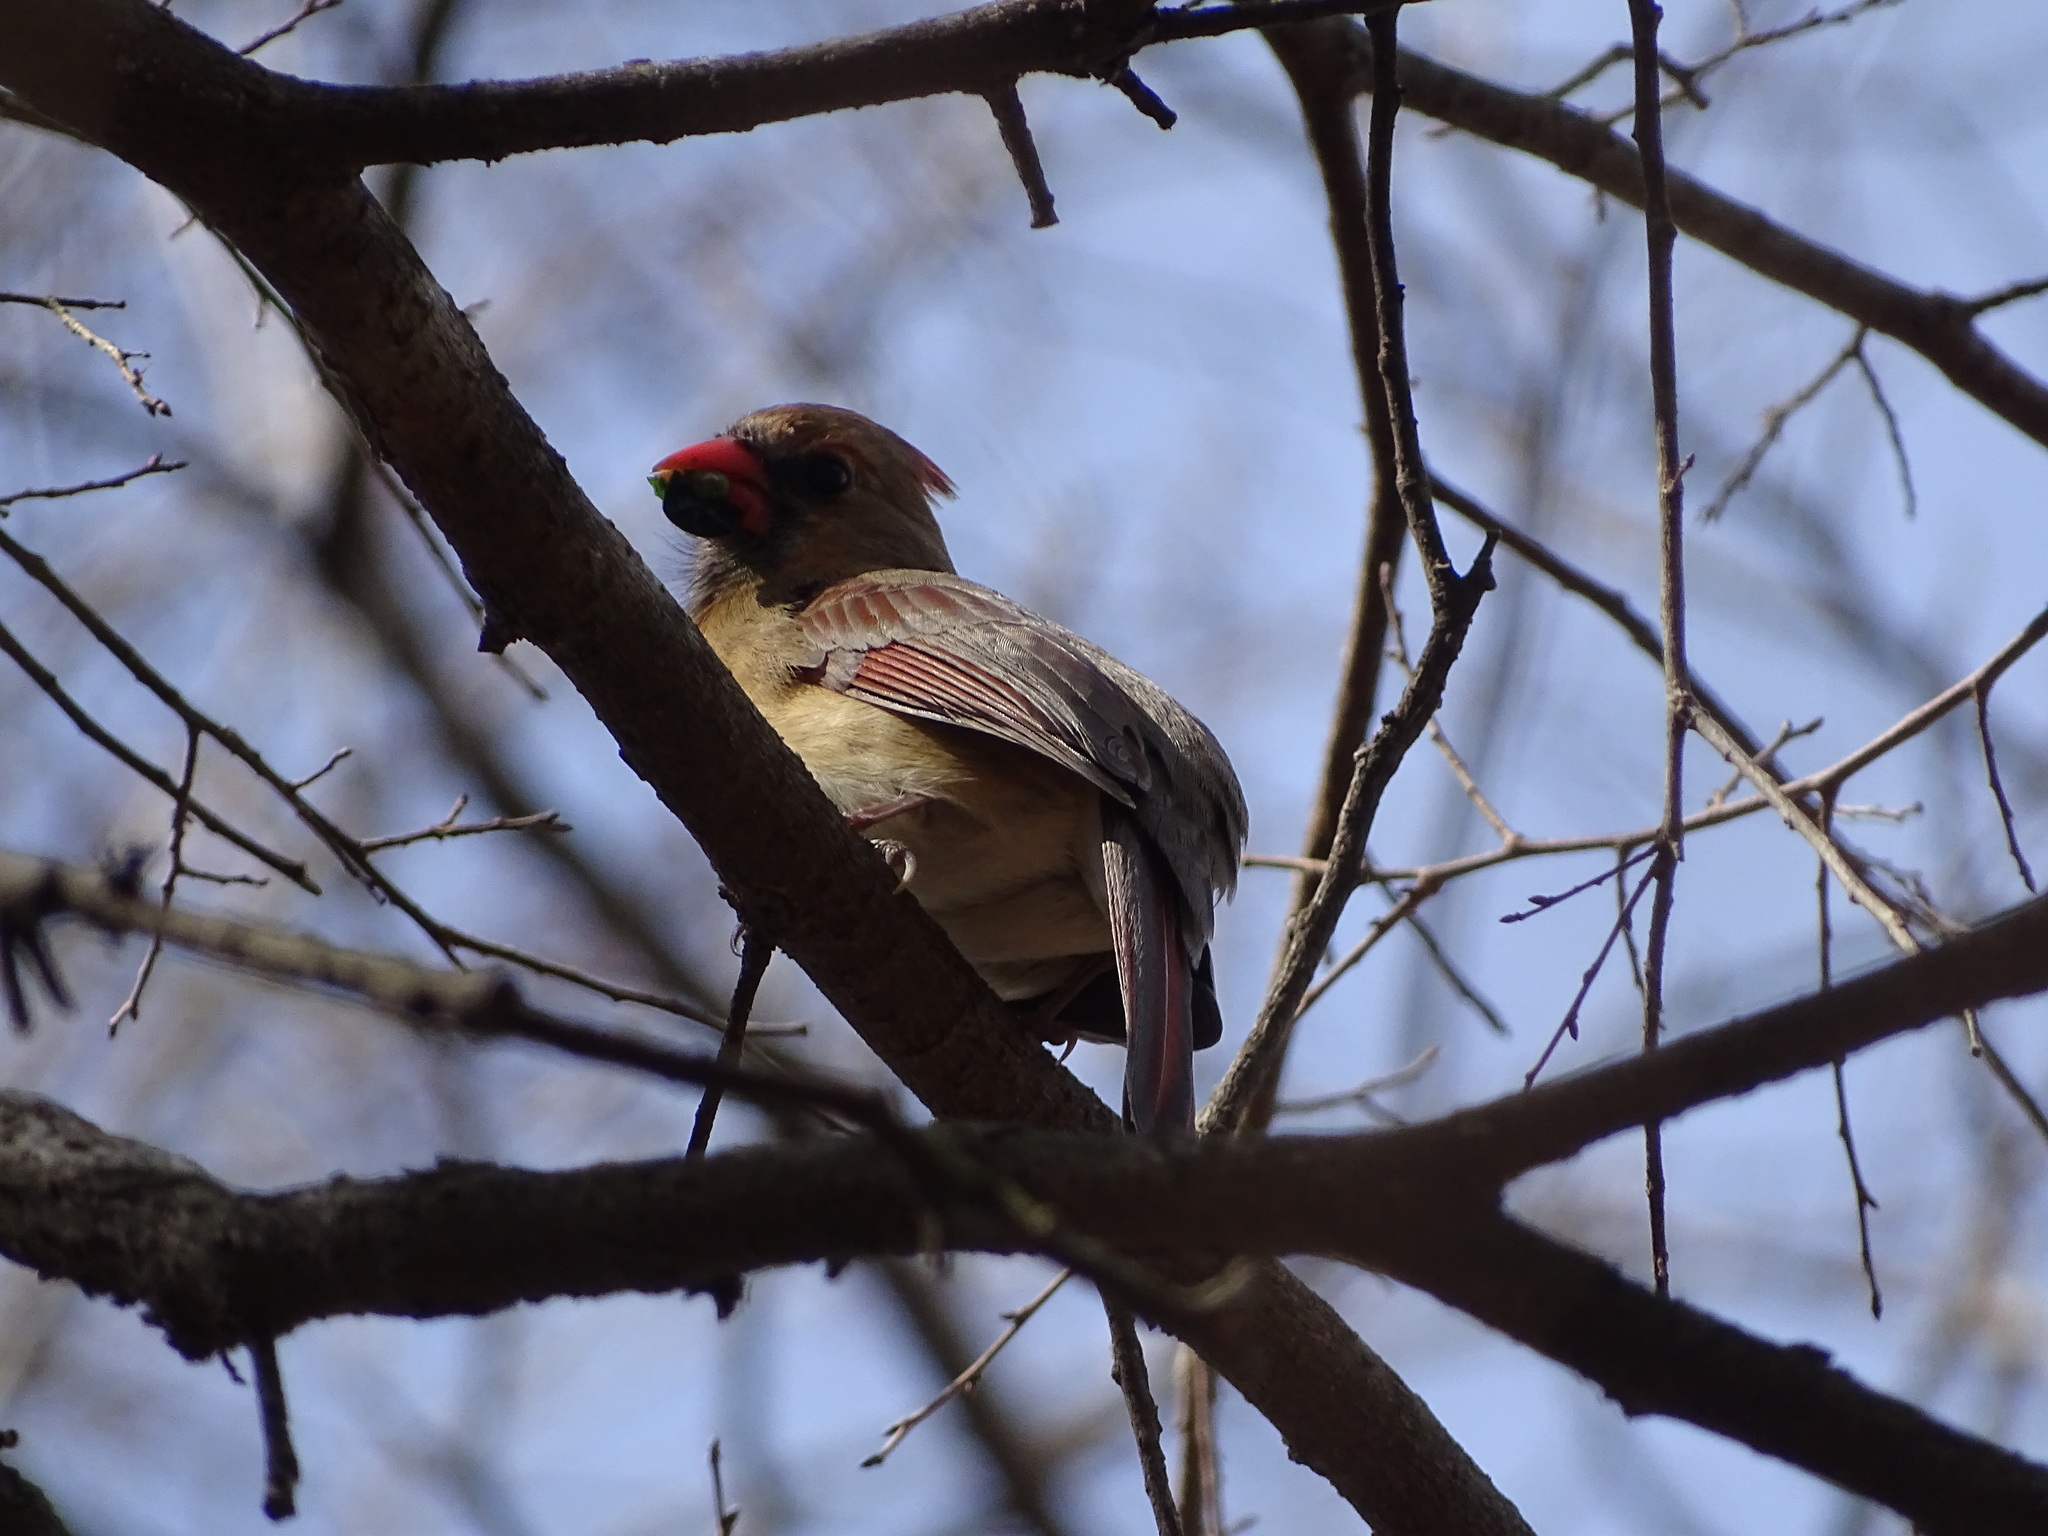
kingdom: Animalia
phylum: Chordata
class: Aves
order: Passeriformes
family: Cardinalidae
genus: Cardinalis
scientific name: Cardinalis cardinalis
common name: Northern cardinal
